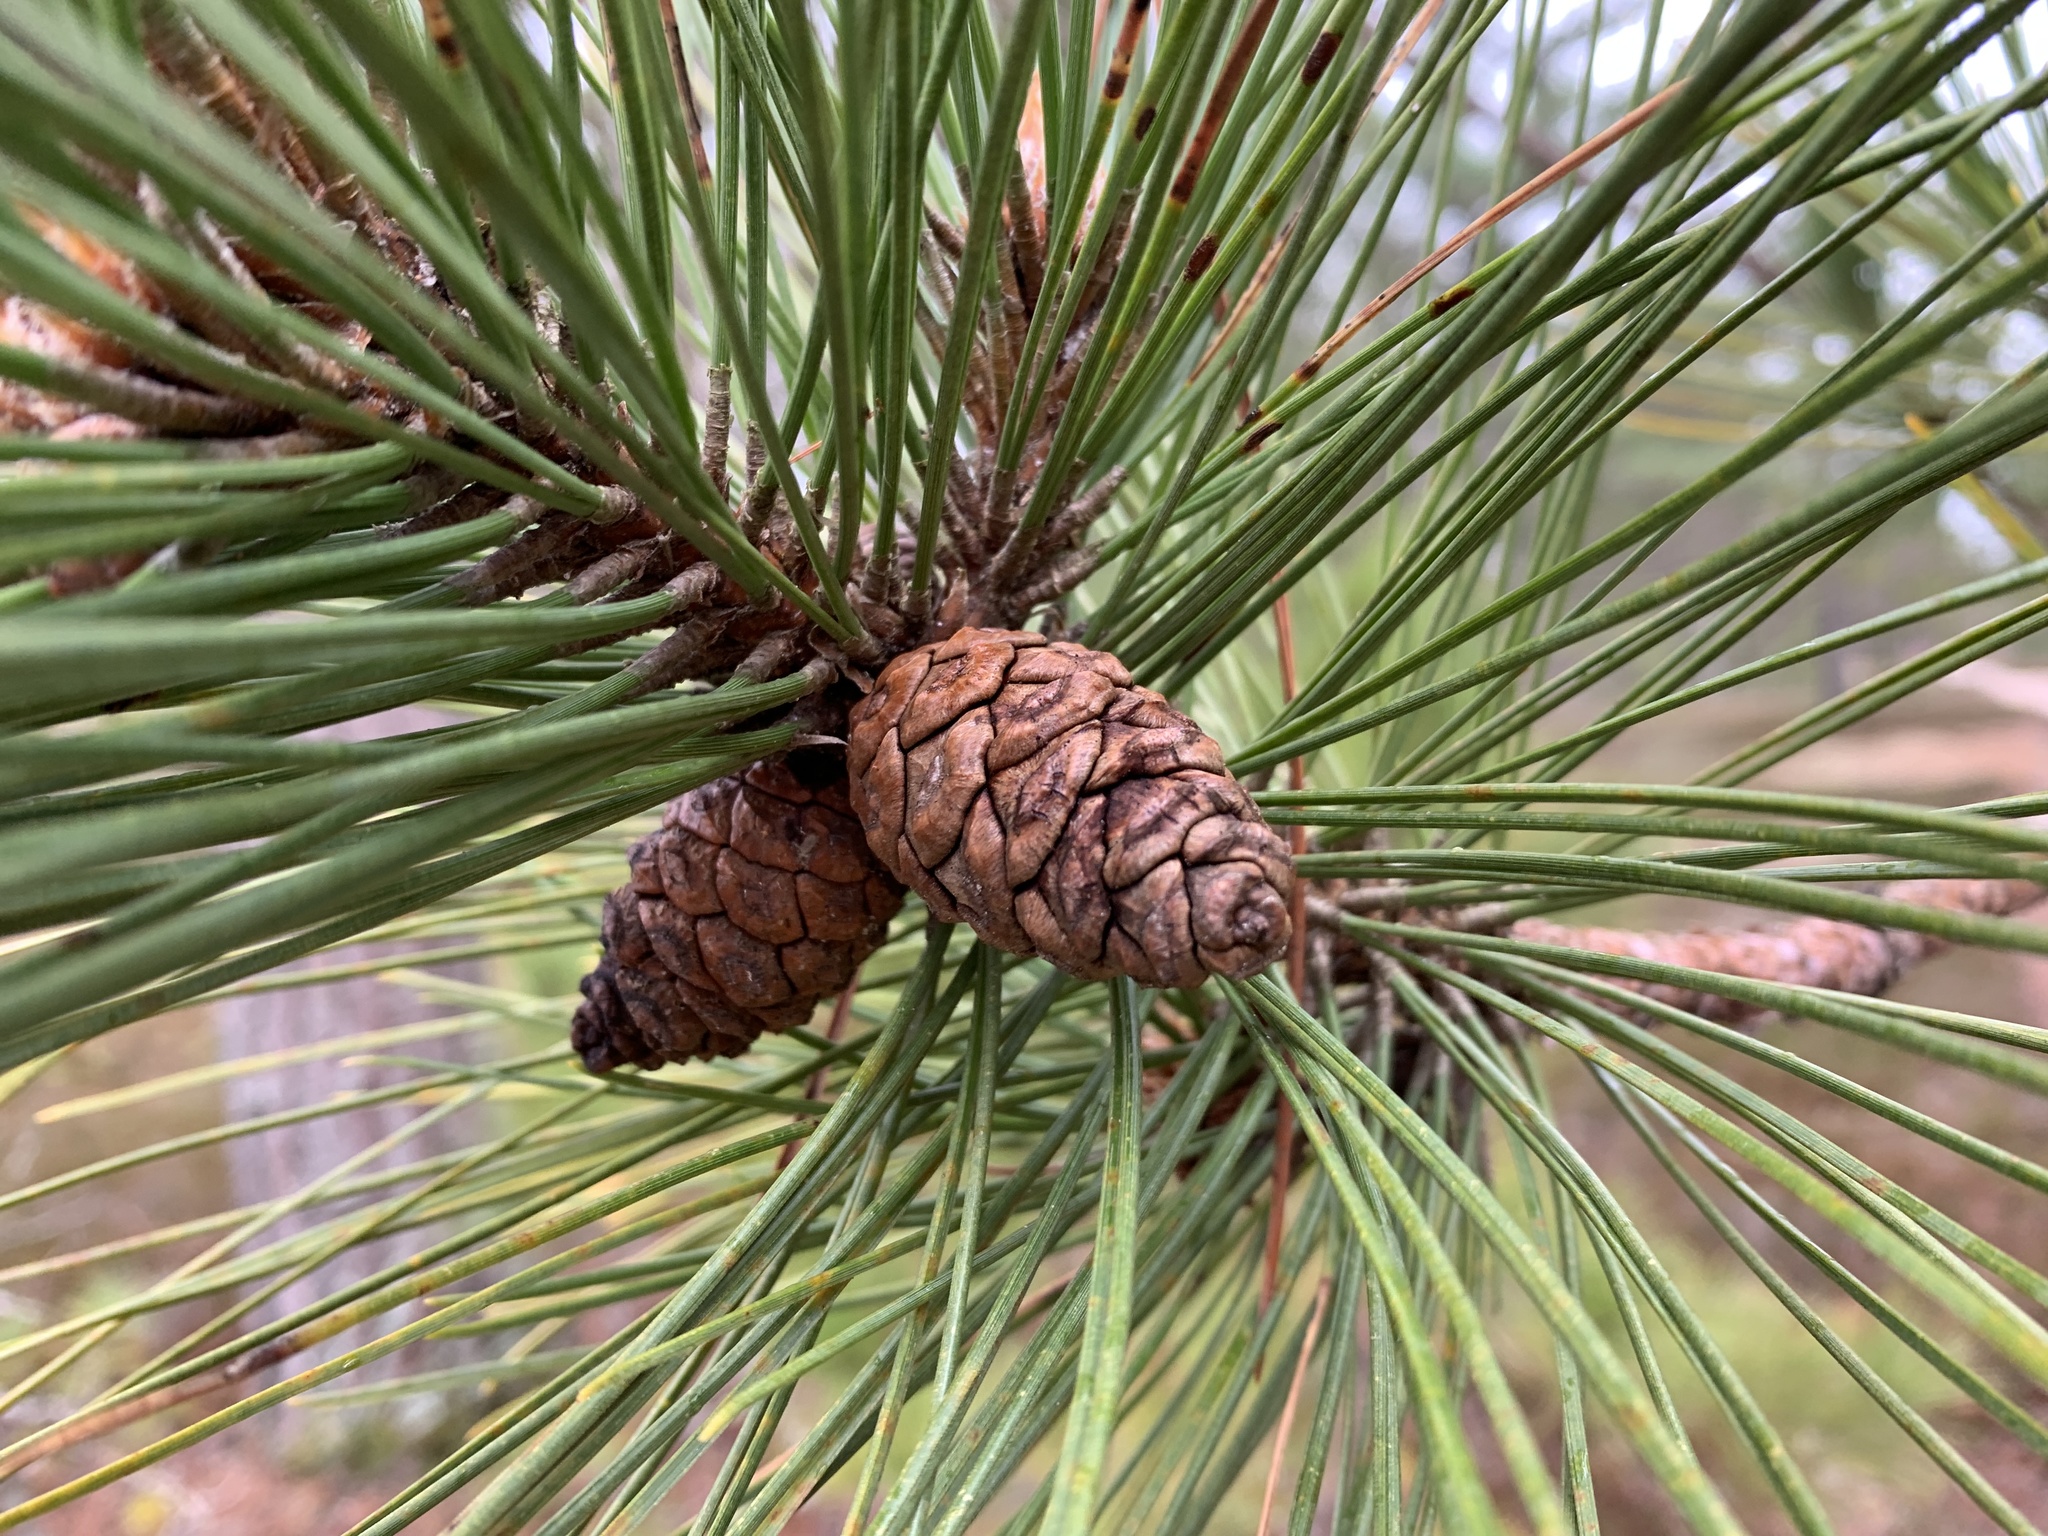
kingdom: Plantae
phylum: Tracheophyta
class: Pinopsida
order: Pinales
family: Pinaceae
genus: Pinus
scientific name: Pinus resinosa
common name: Norway pine
